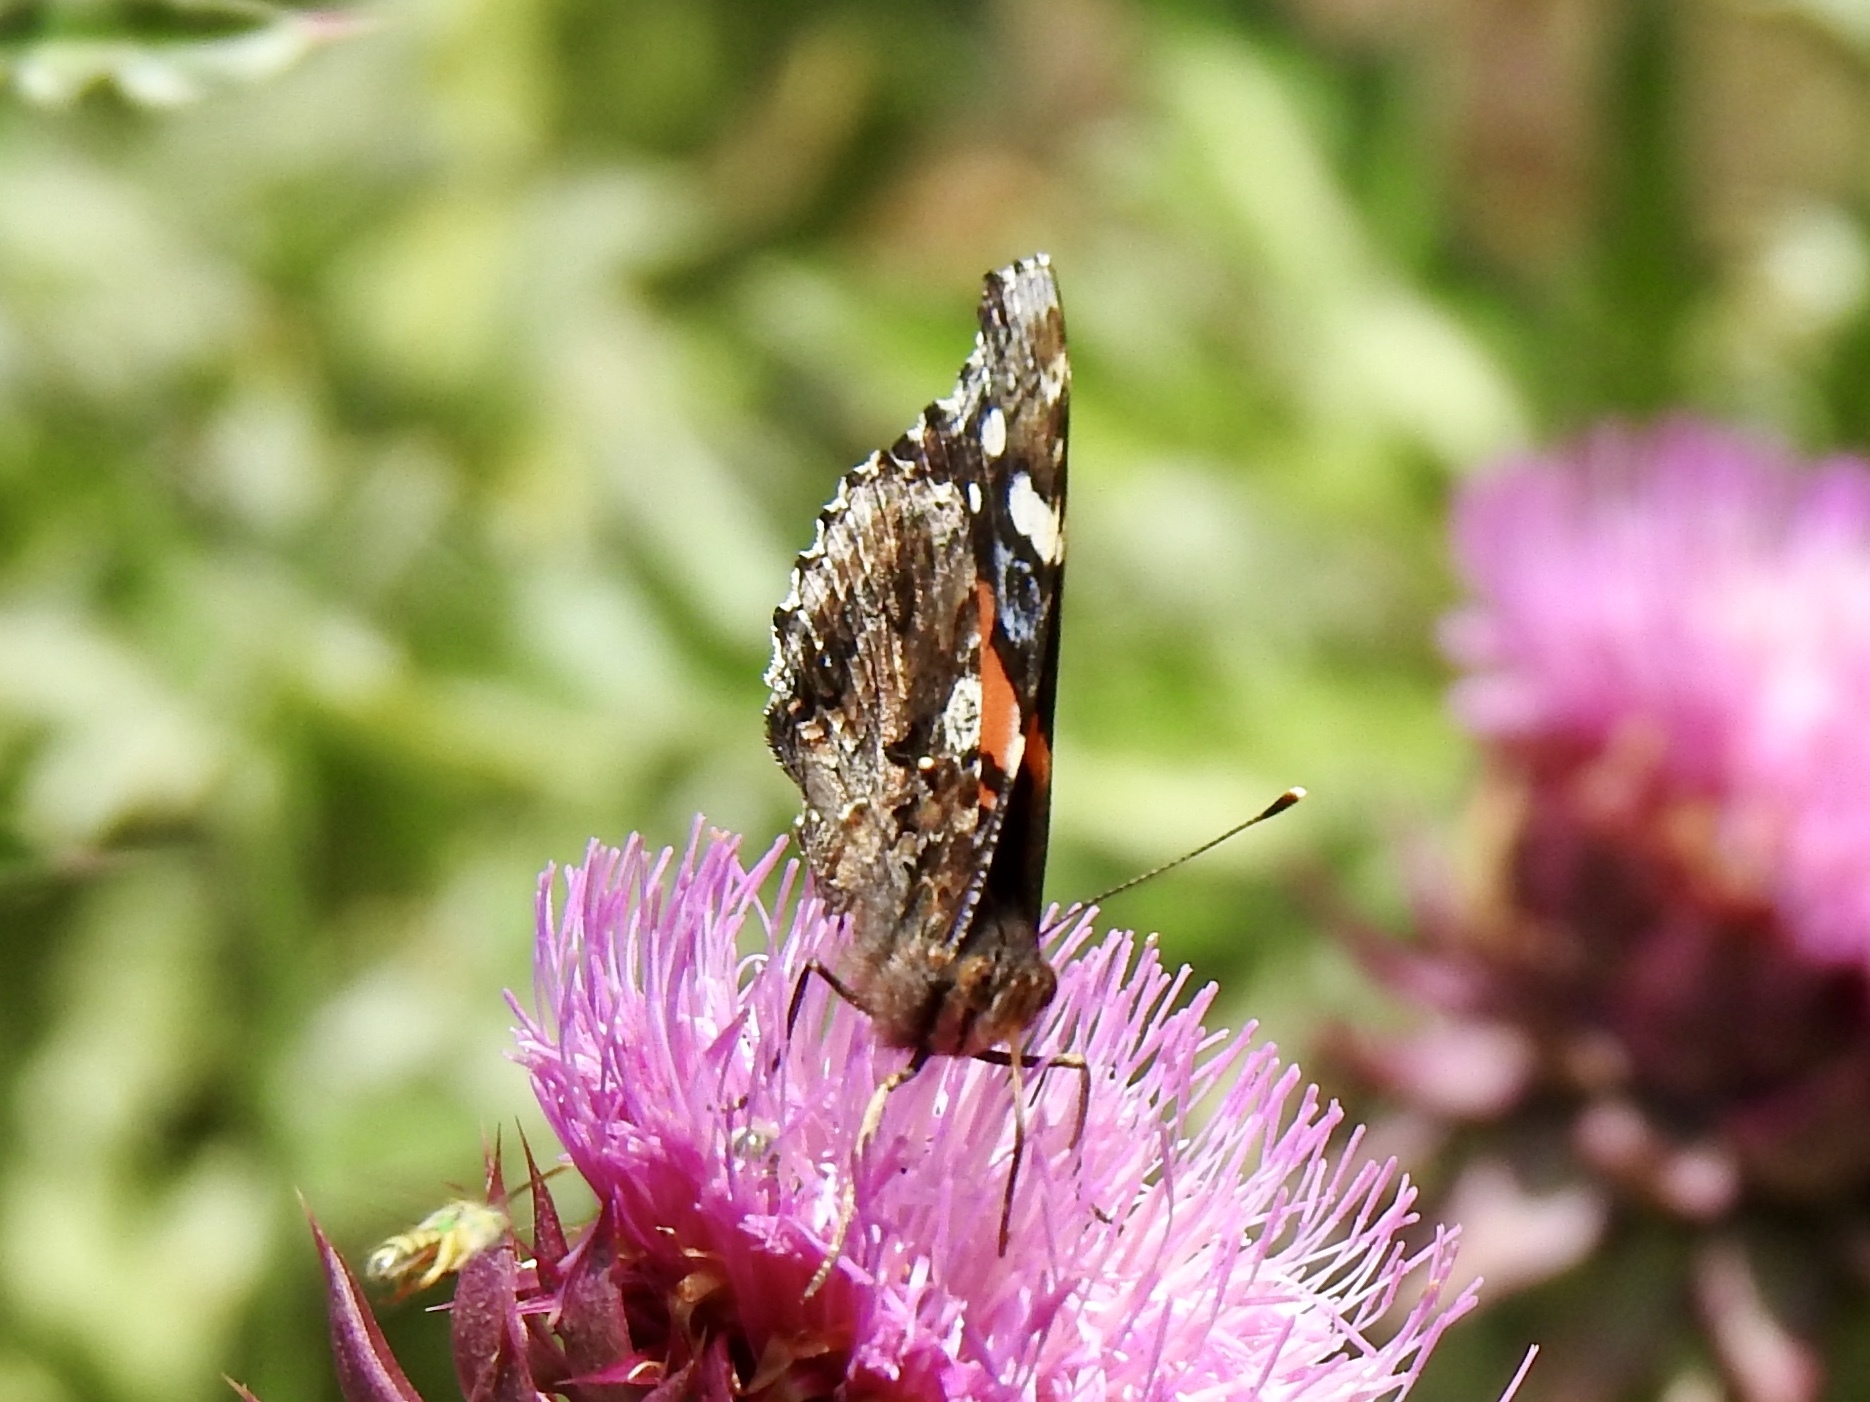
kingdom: Animalia
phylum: Arthropoda
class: Insecta
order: Lepidoptera
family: Nymphalidae
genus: Vanessa
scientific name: Vanessa atalanta
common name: Red admiral
